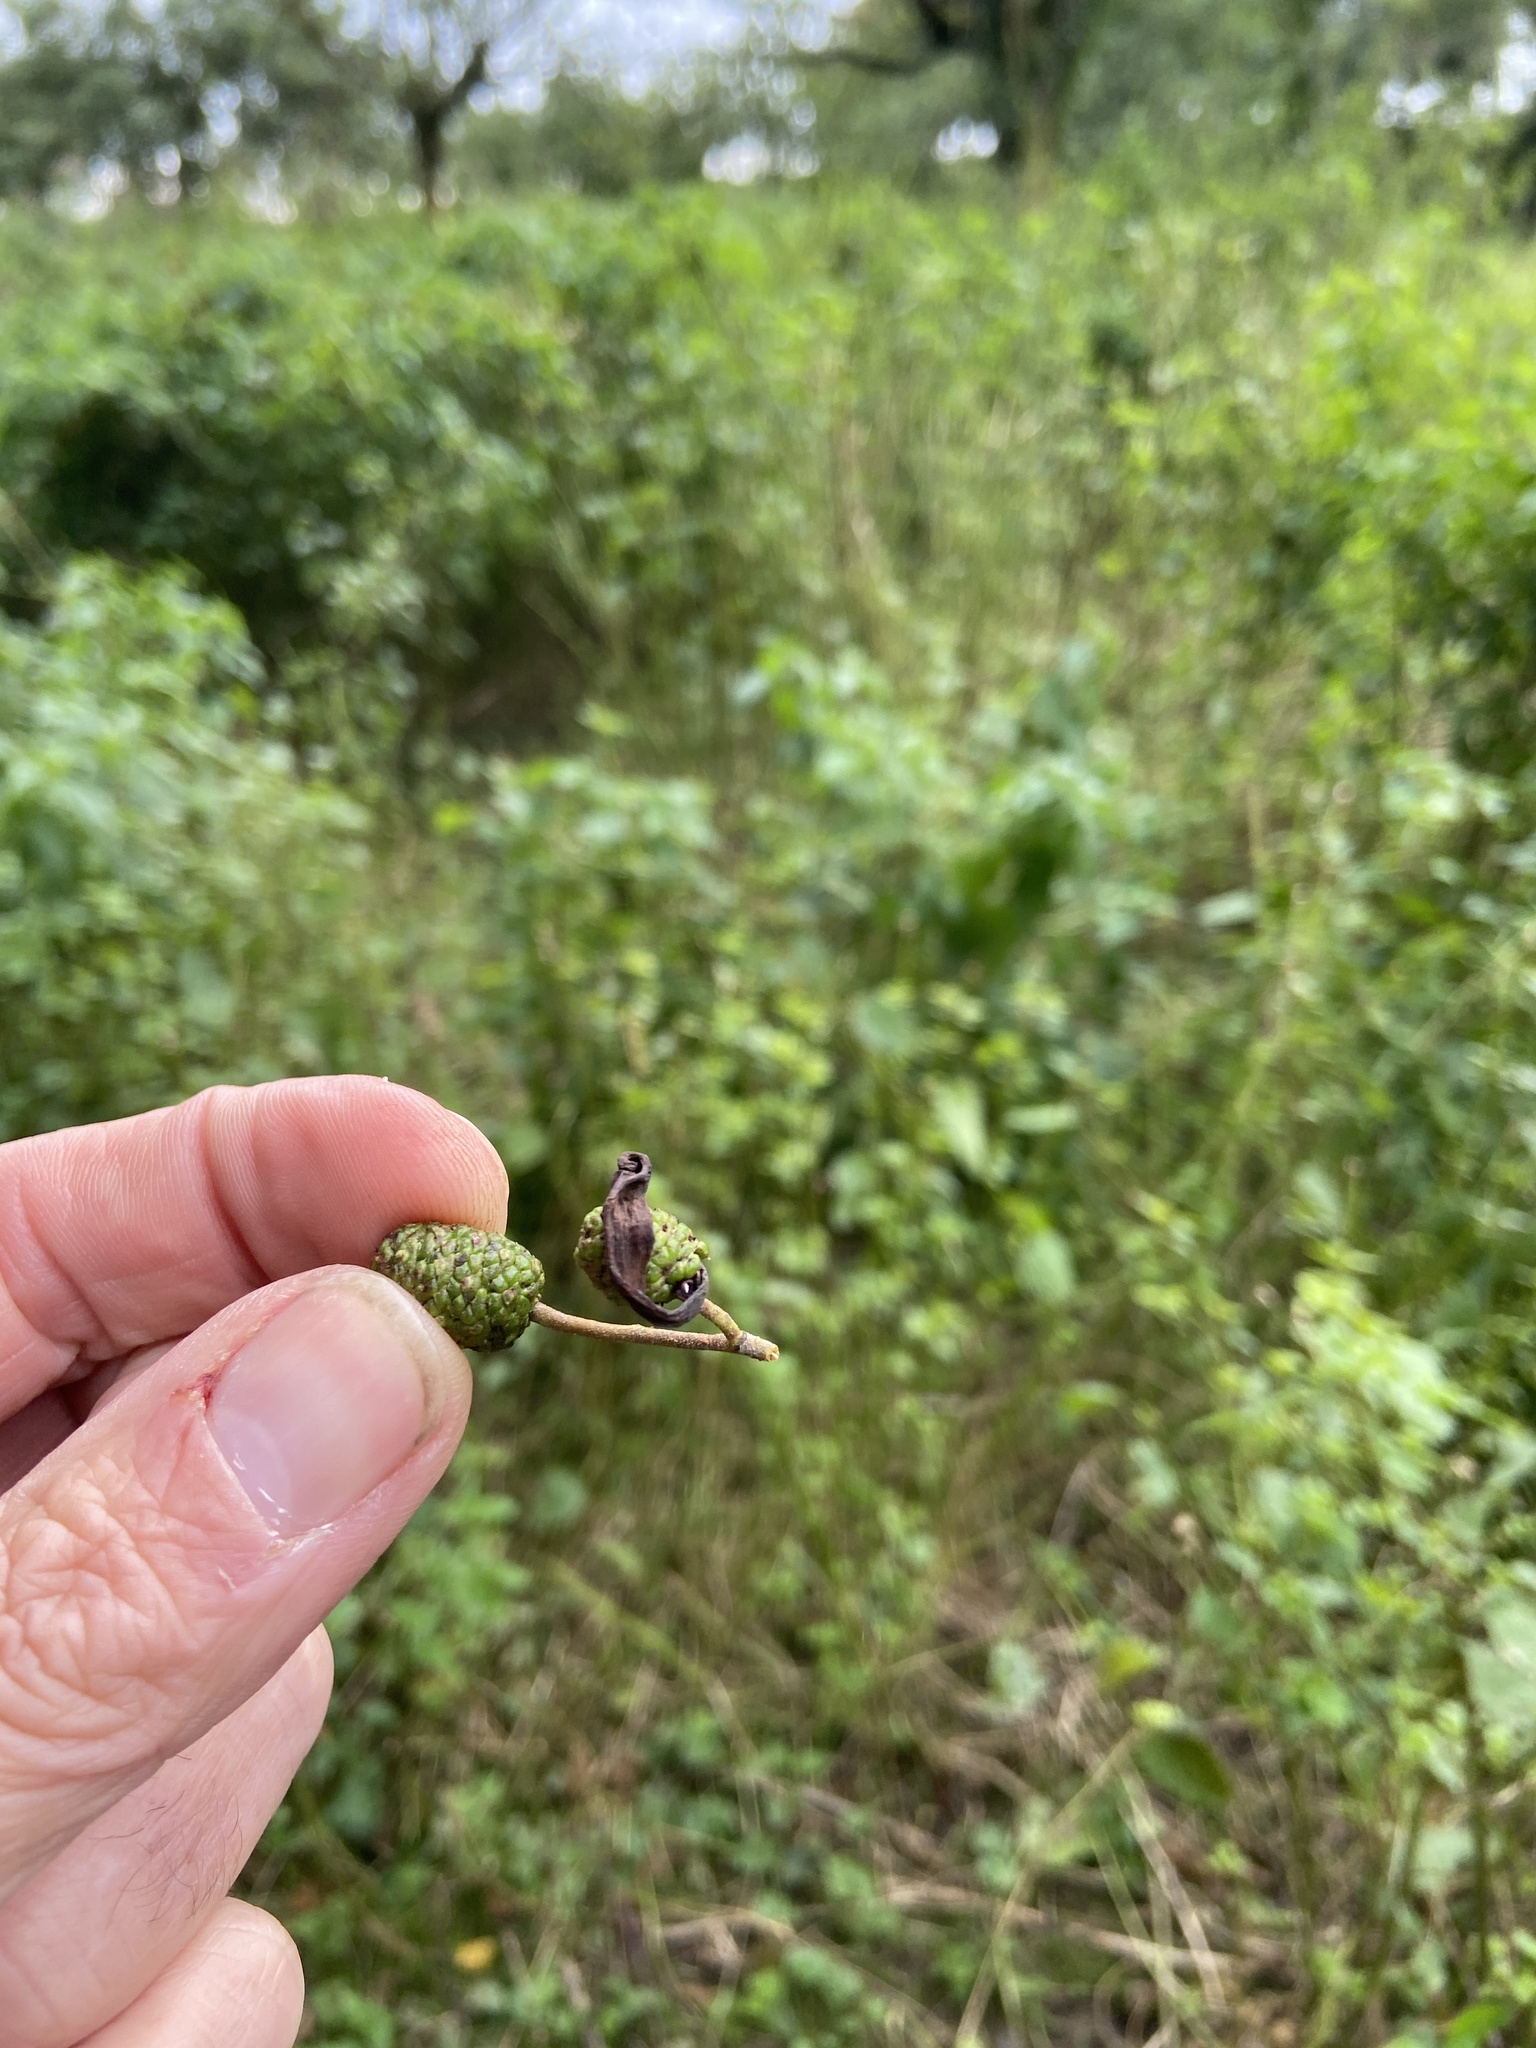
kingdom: Fungi
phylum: Ascomycota
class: Taphrinomycetes
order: Taphrinales
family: Taphrinaceae
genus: Taphrina
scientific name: Taphrina alni
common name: Alder tongue
